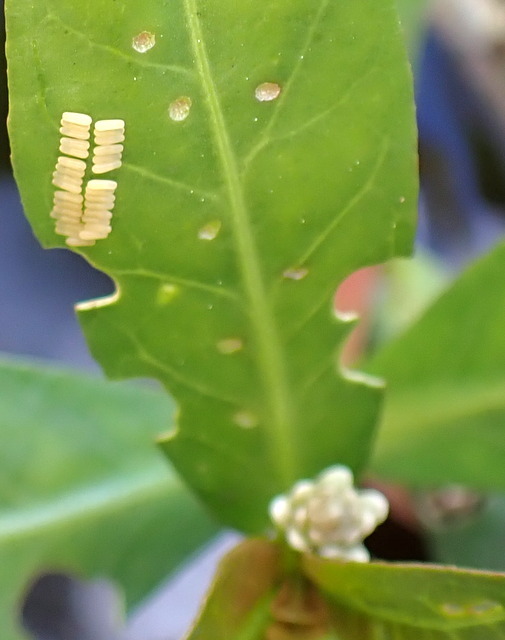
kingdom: Animalia
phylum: Arthropoda
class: Insecta
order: Coleoptera
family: Chrysomelidae
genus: Agasicles
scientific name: Agasicles hygrophila
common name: Alligatorweed flea beetle
